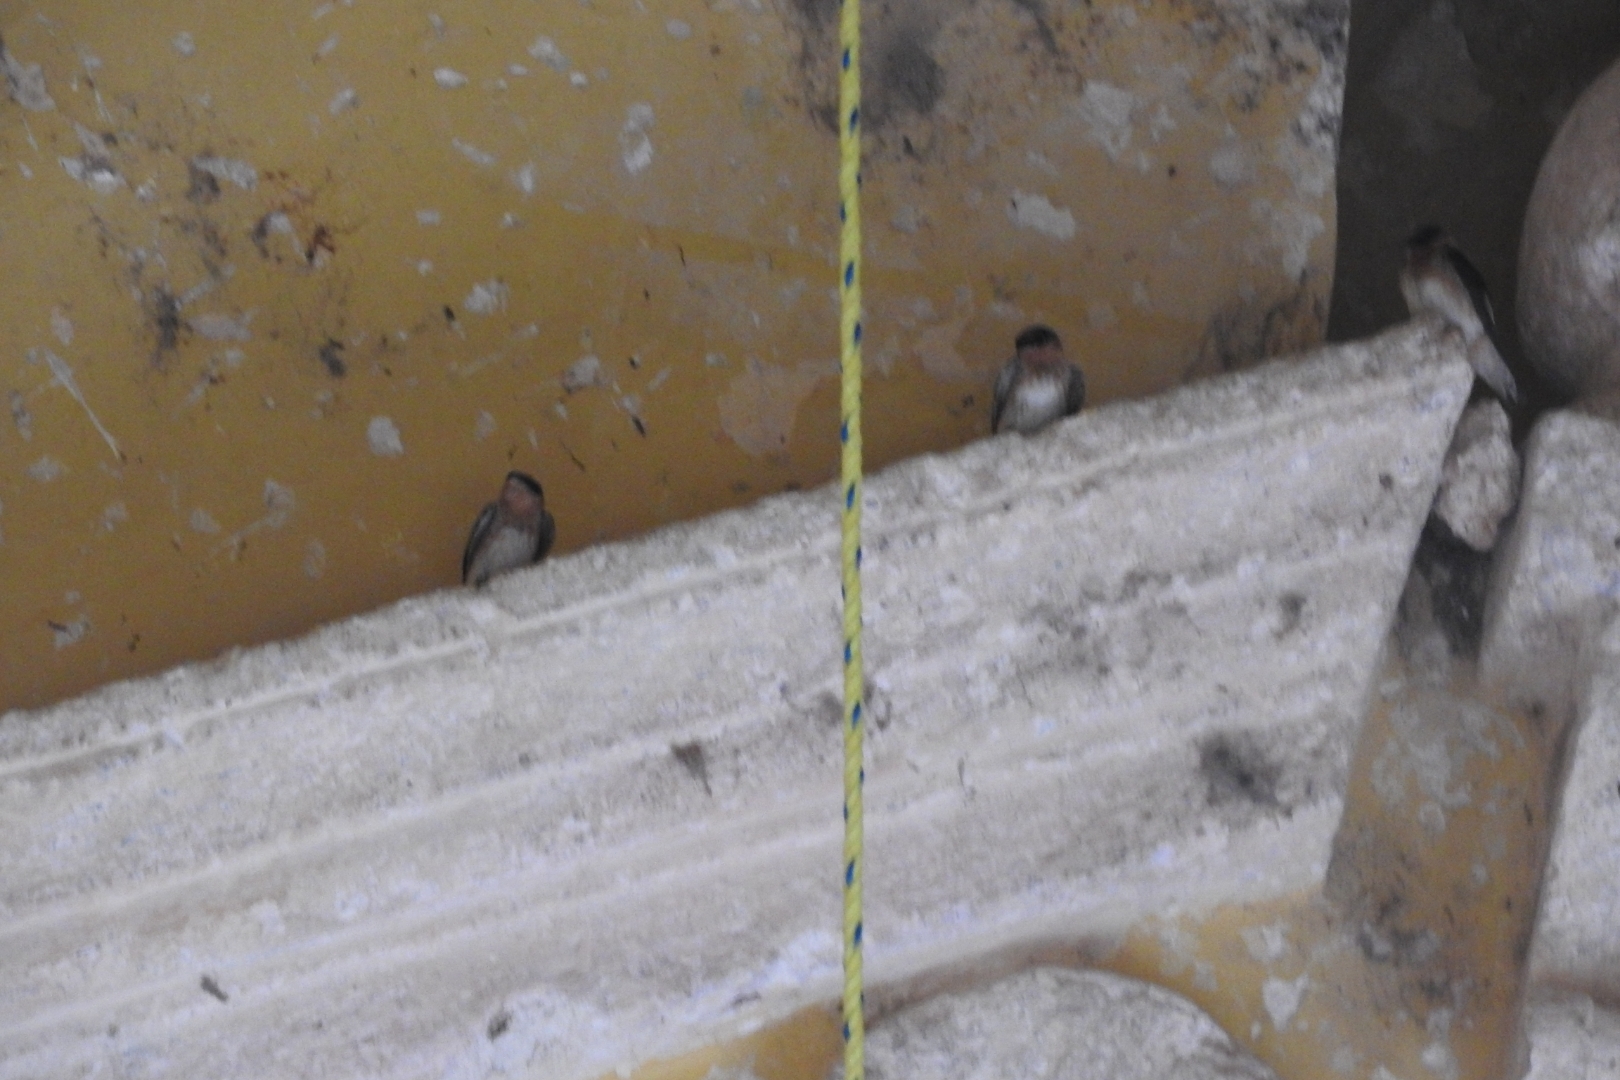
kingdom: Animalia
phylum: Chordata
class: Aves
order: Passeriformes
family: Hirundinidae
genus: Petrochelidon
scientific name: Petrochelidon fulva
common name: Cave swallow
